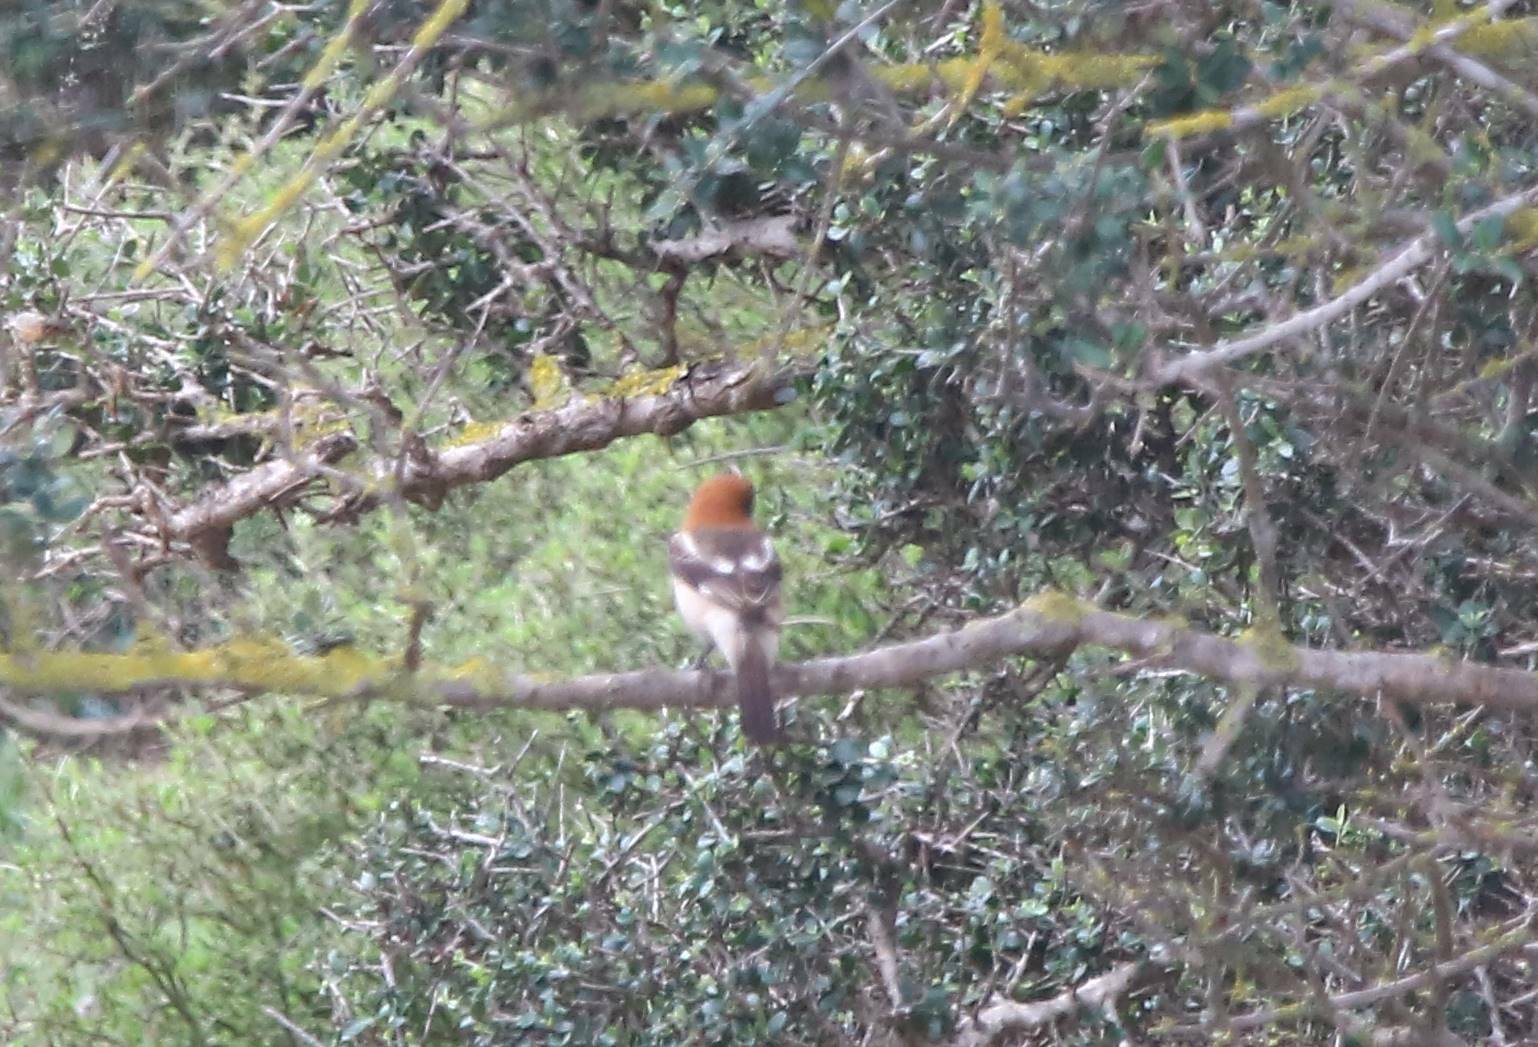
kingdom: Animalia
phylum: Chordata
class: Aves
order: Passeriformes
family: Laniidae
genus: Lanius
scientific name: Lanius senator
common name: Woodchat shrike
